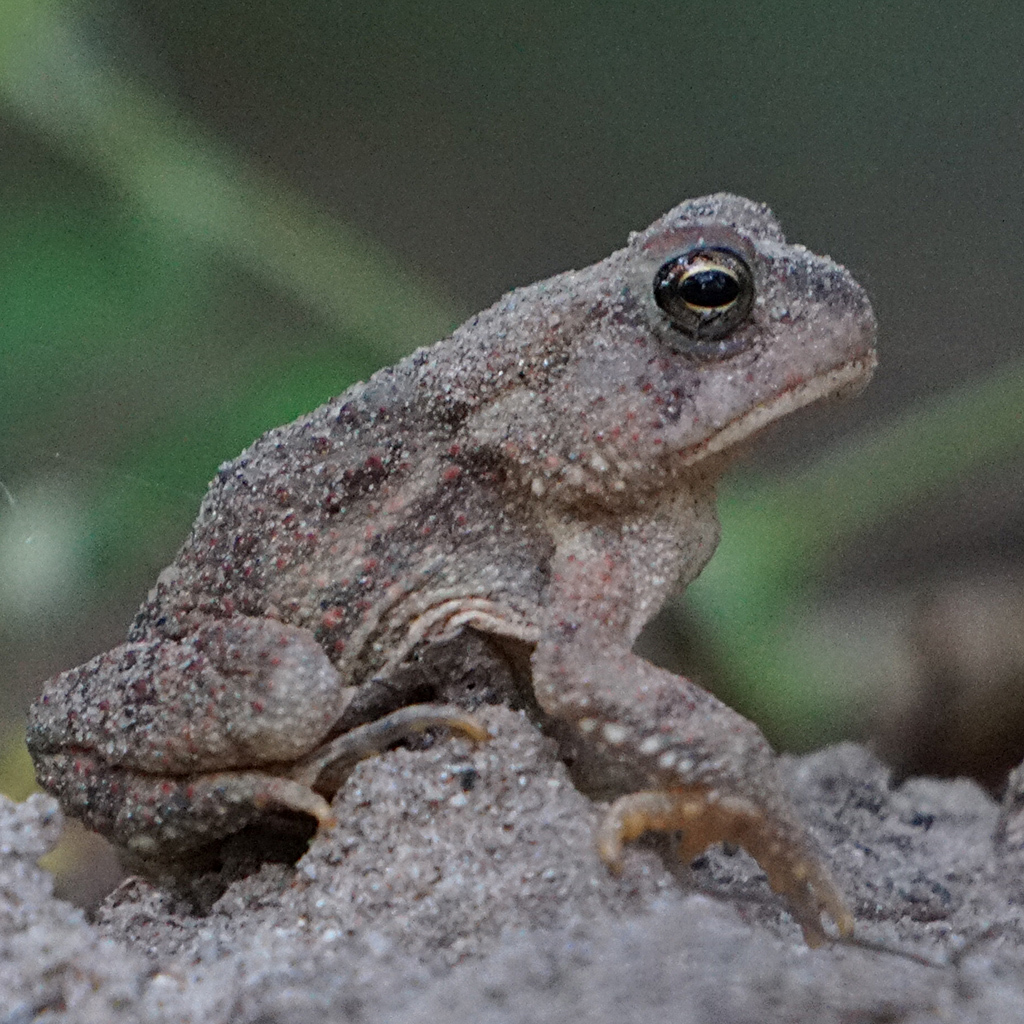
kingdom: Animalia
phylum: Chordata
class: Amphibia
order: Anura
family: Bufonidae
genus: Anaxyrus
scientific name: Anaxyrus fowleri
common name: Fowler's toad
